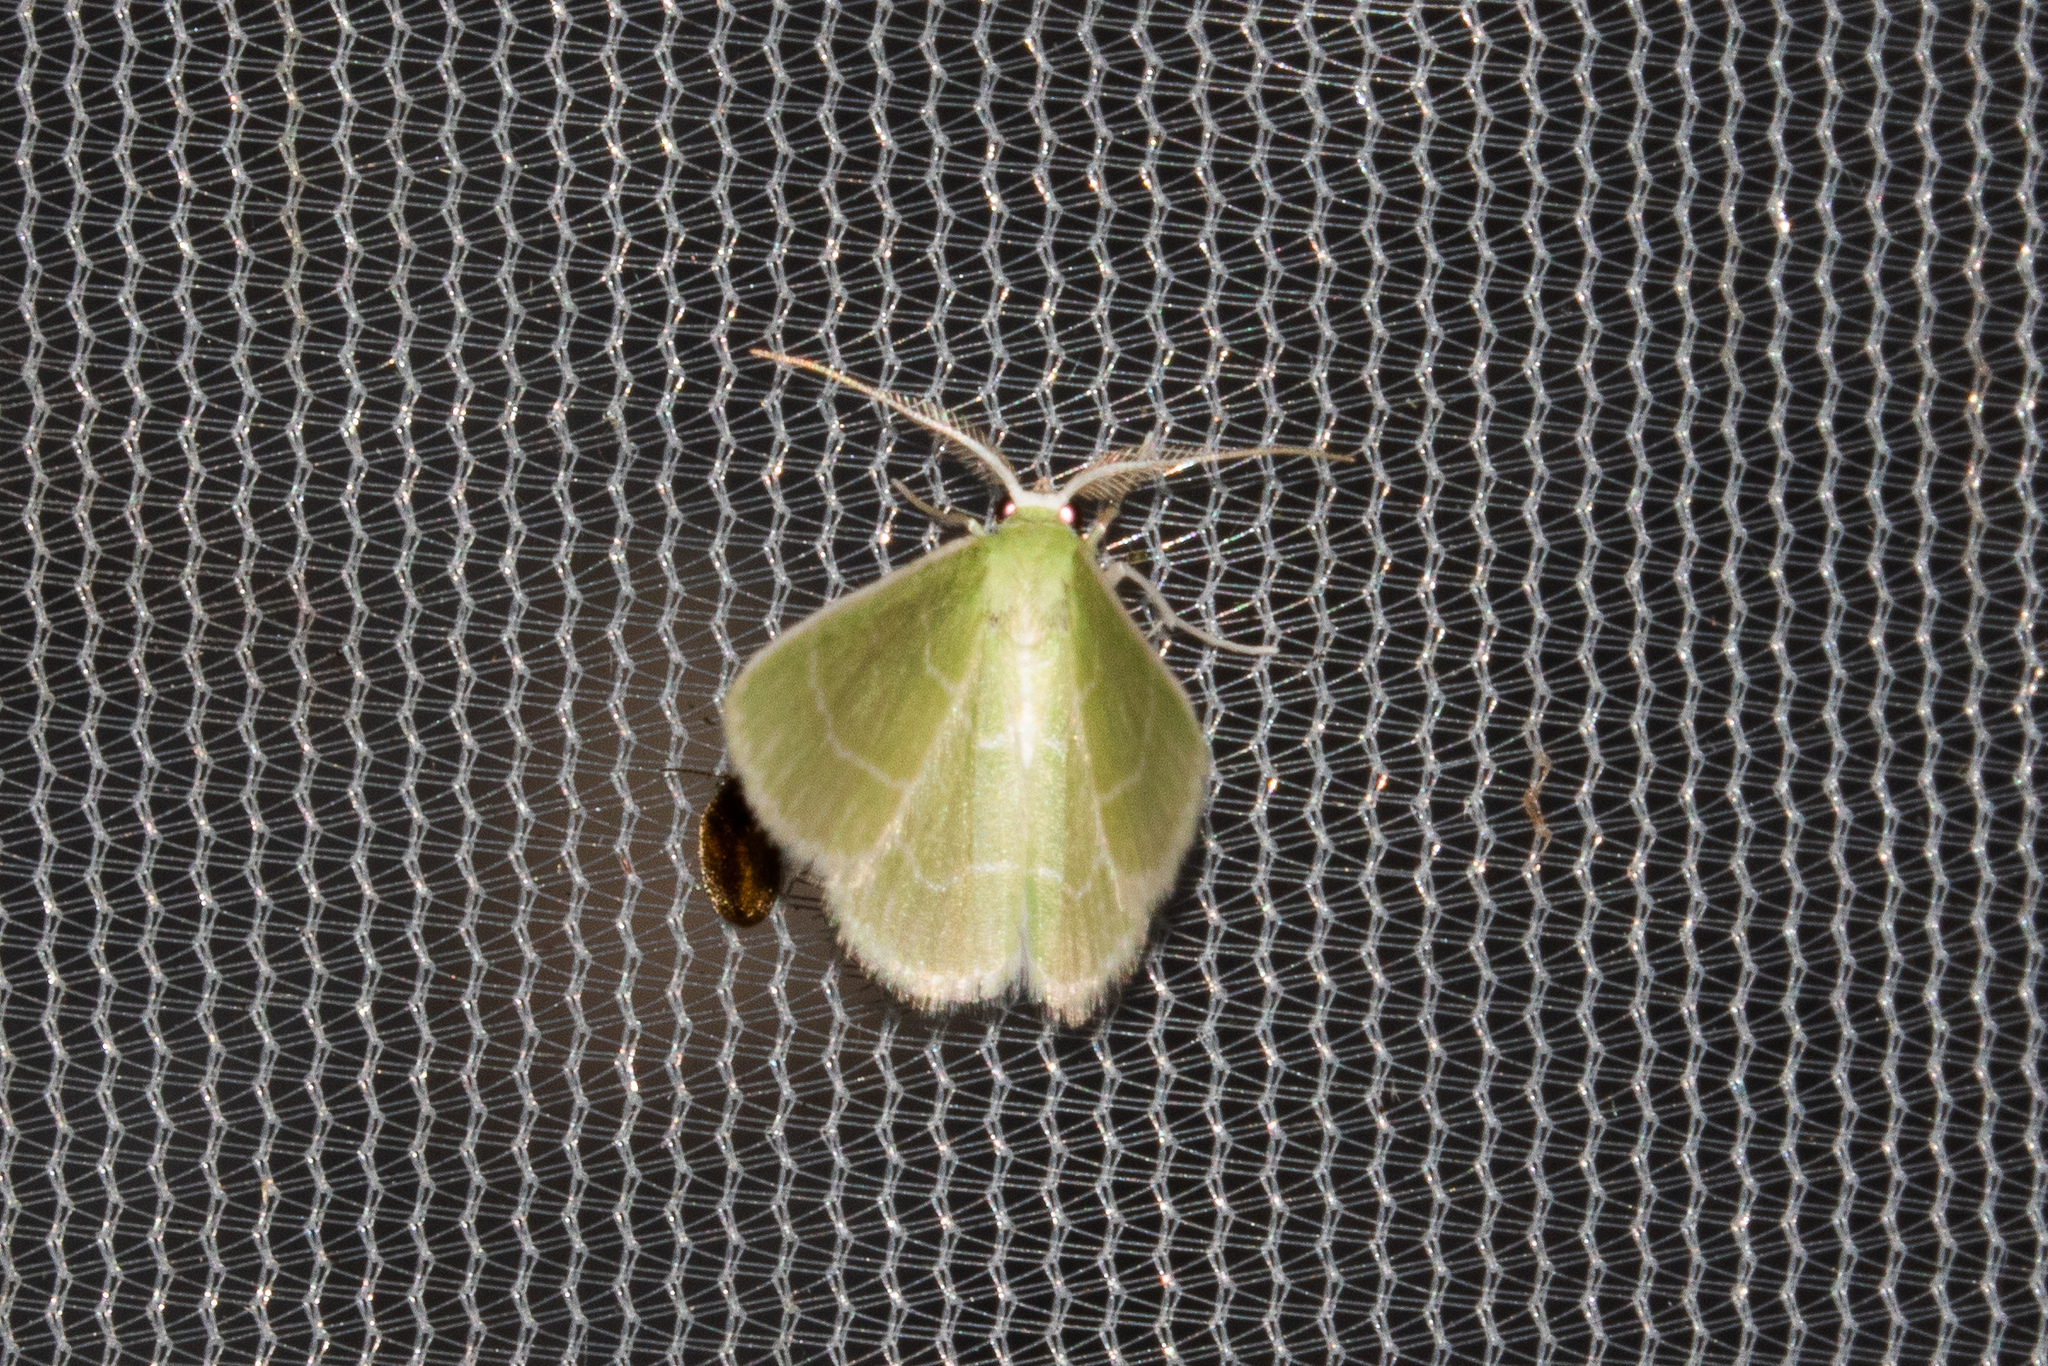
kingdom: Animalia
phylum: Arthropoda
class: Insecta
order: Lepidoptera
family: Geometridae
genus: Synchlora
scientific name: Synchlora aerata
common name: Wavy-lined emerald
